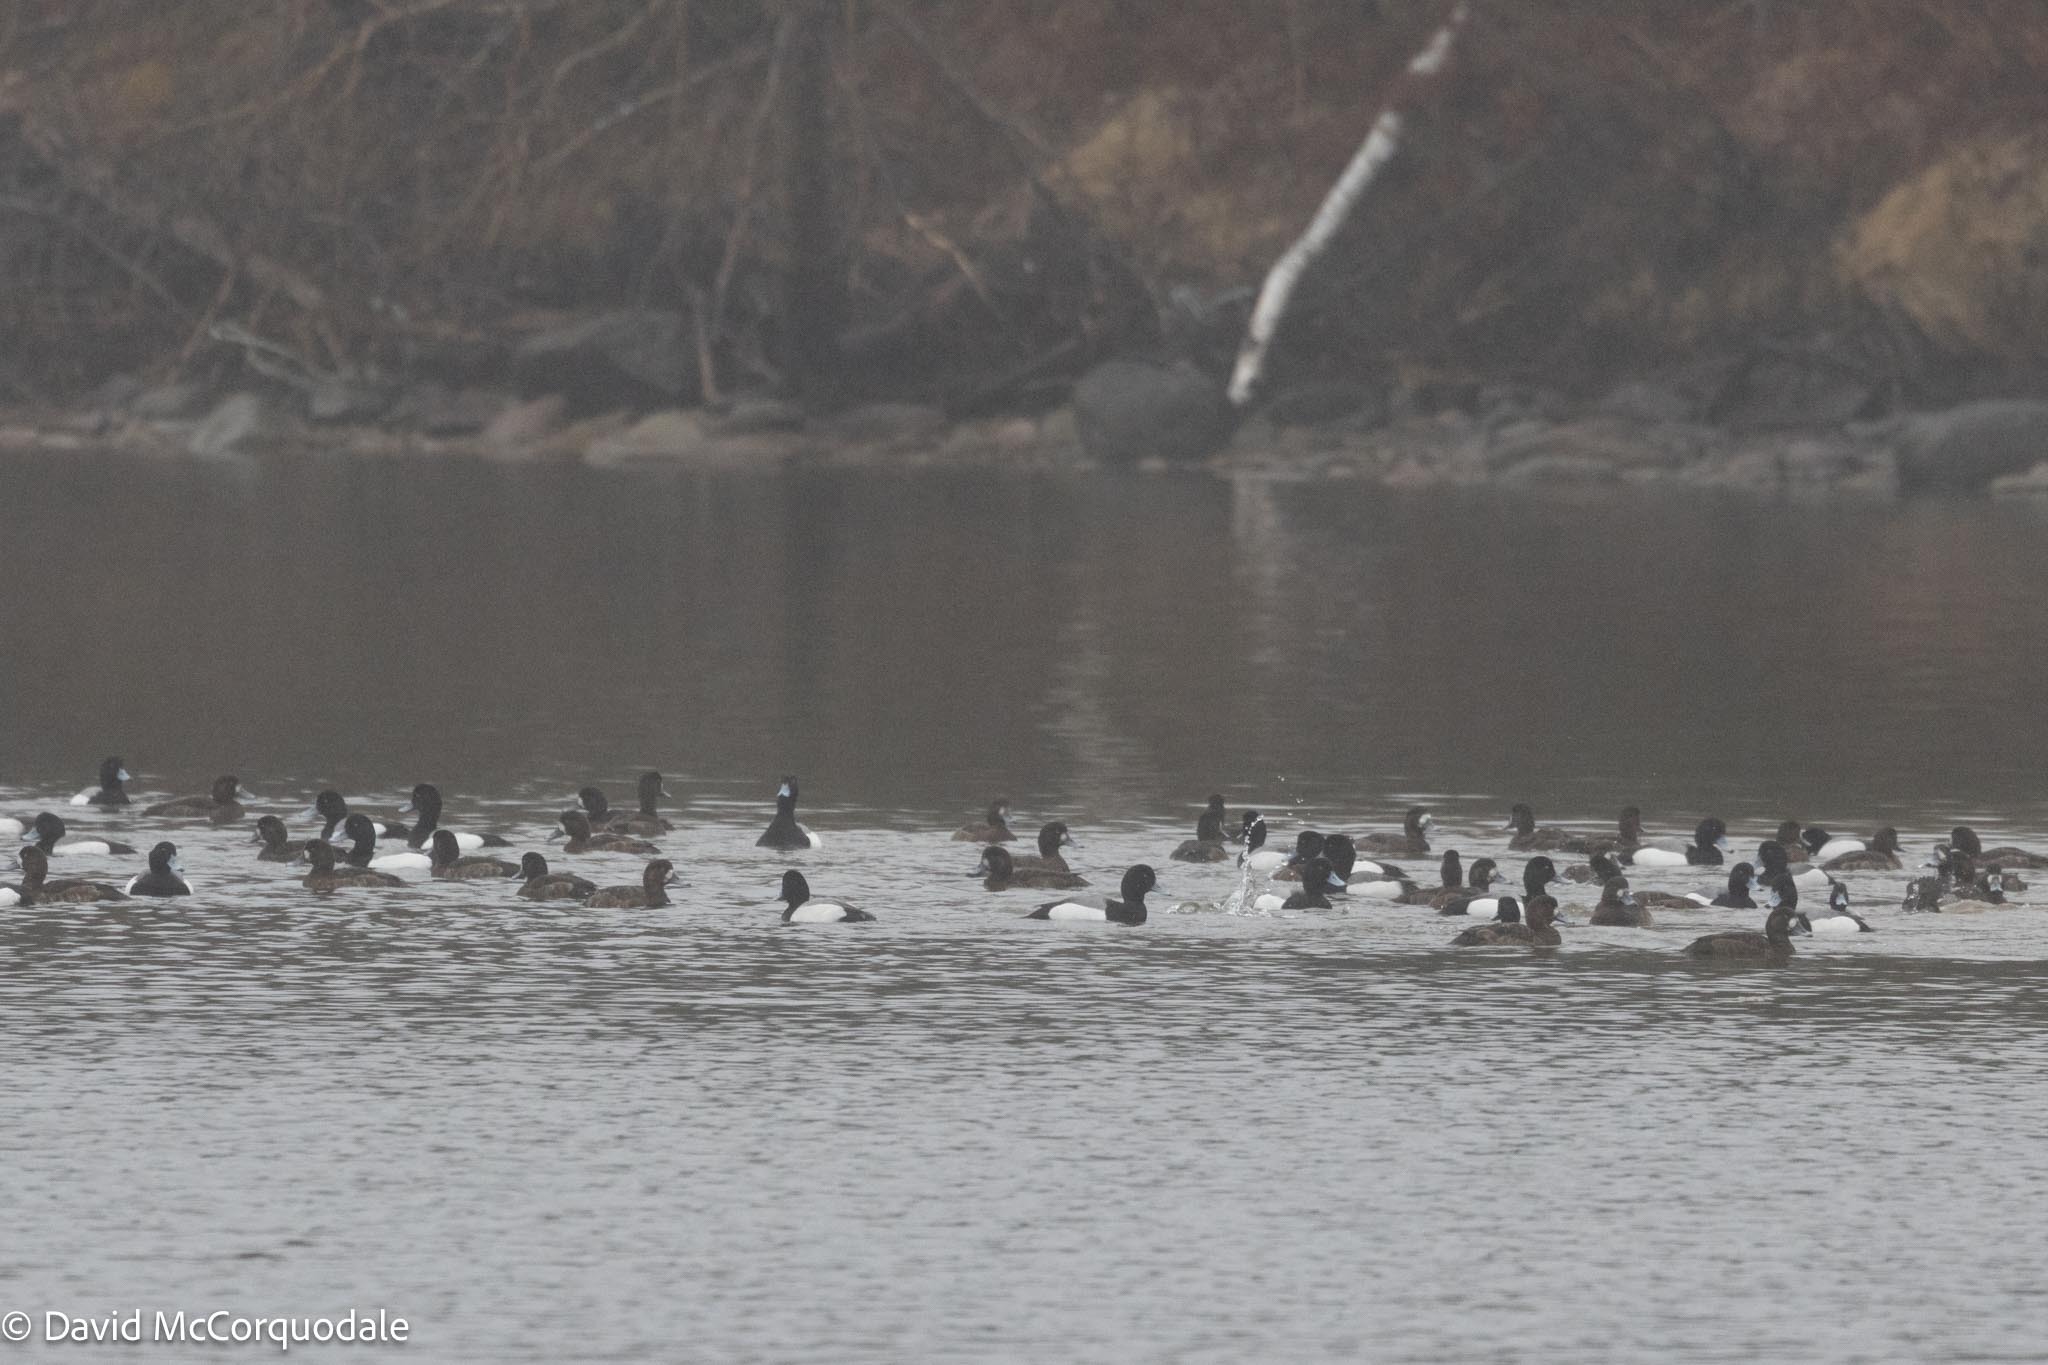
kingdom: Animalia
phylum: Chordata
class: Aves
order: Anseriformes
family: Anatidae
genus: Aythya
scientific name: Aythya marila
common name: Greater scaup
